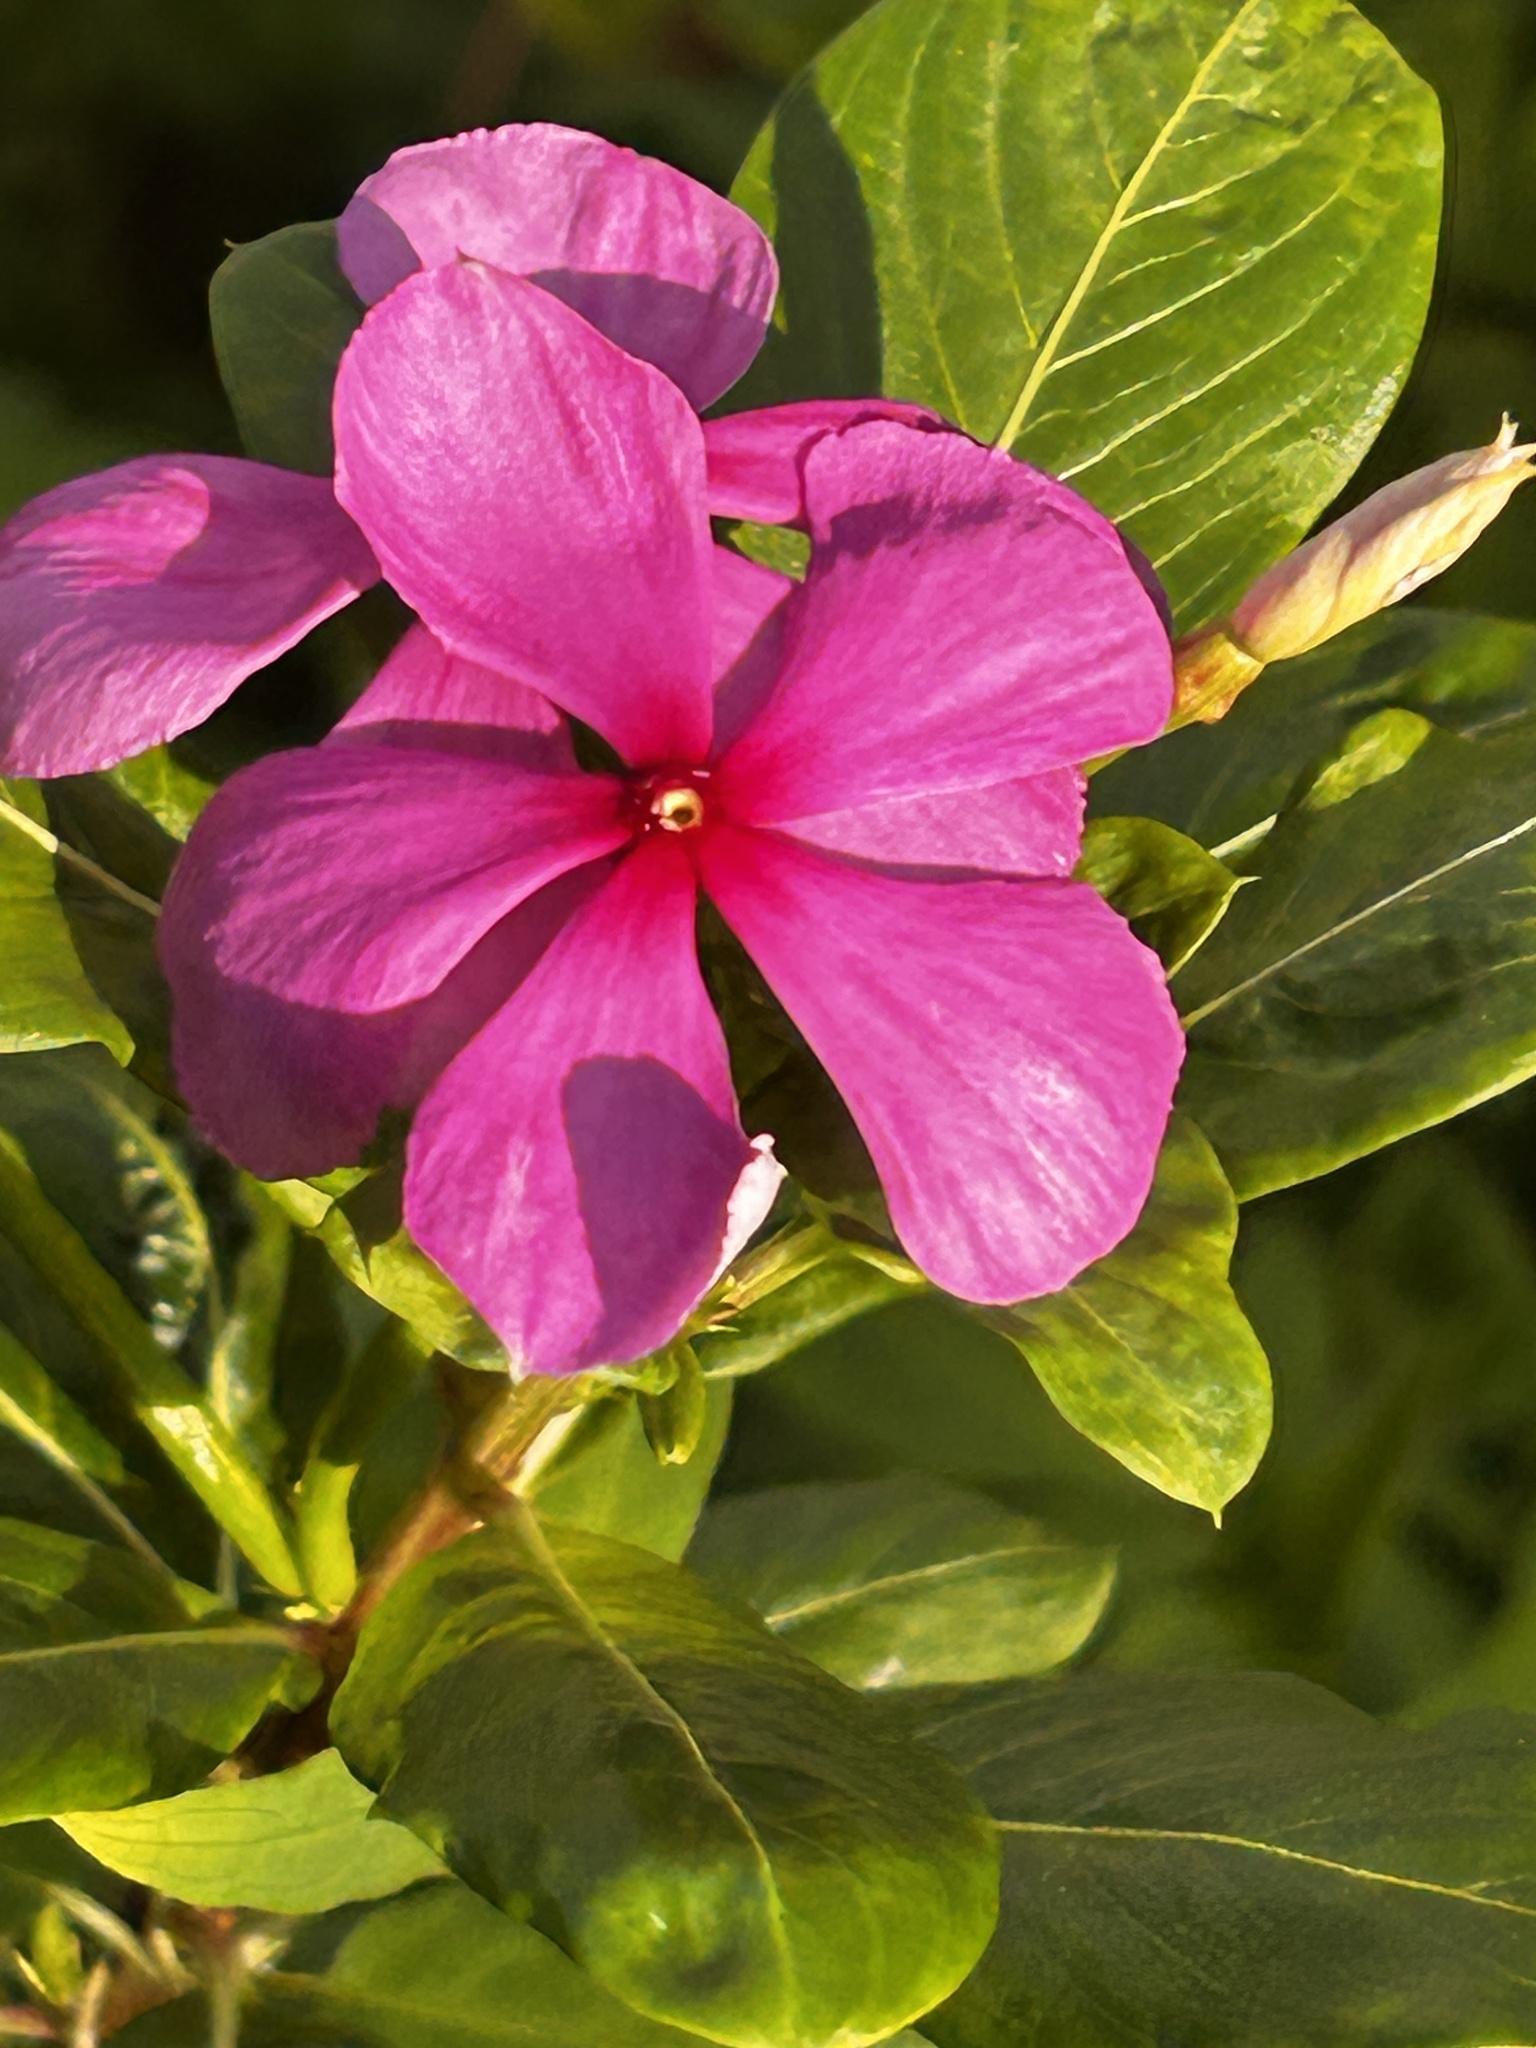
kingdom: Plantae
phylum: Tracheophyta
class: Magnoliopsida
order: Gentianales
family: Apocynaceae
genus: Catharanthus
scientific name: Catharanthus roseus
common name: Madagascar periwinkle
